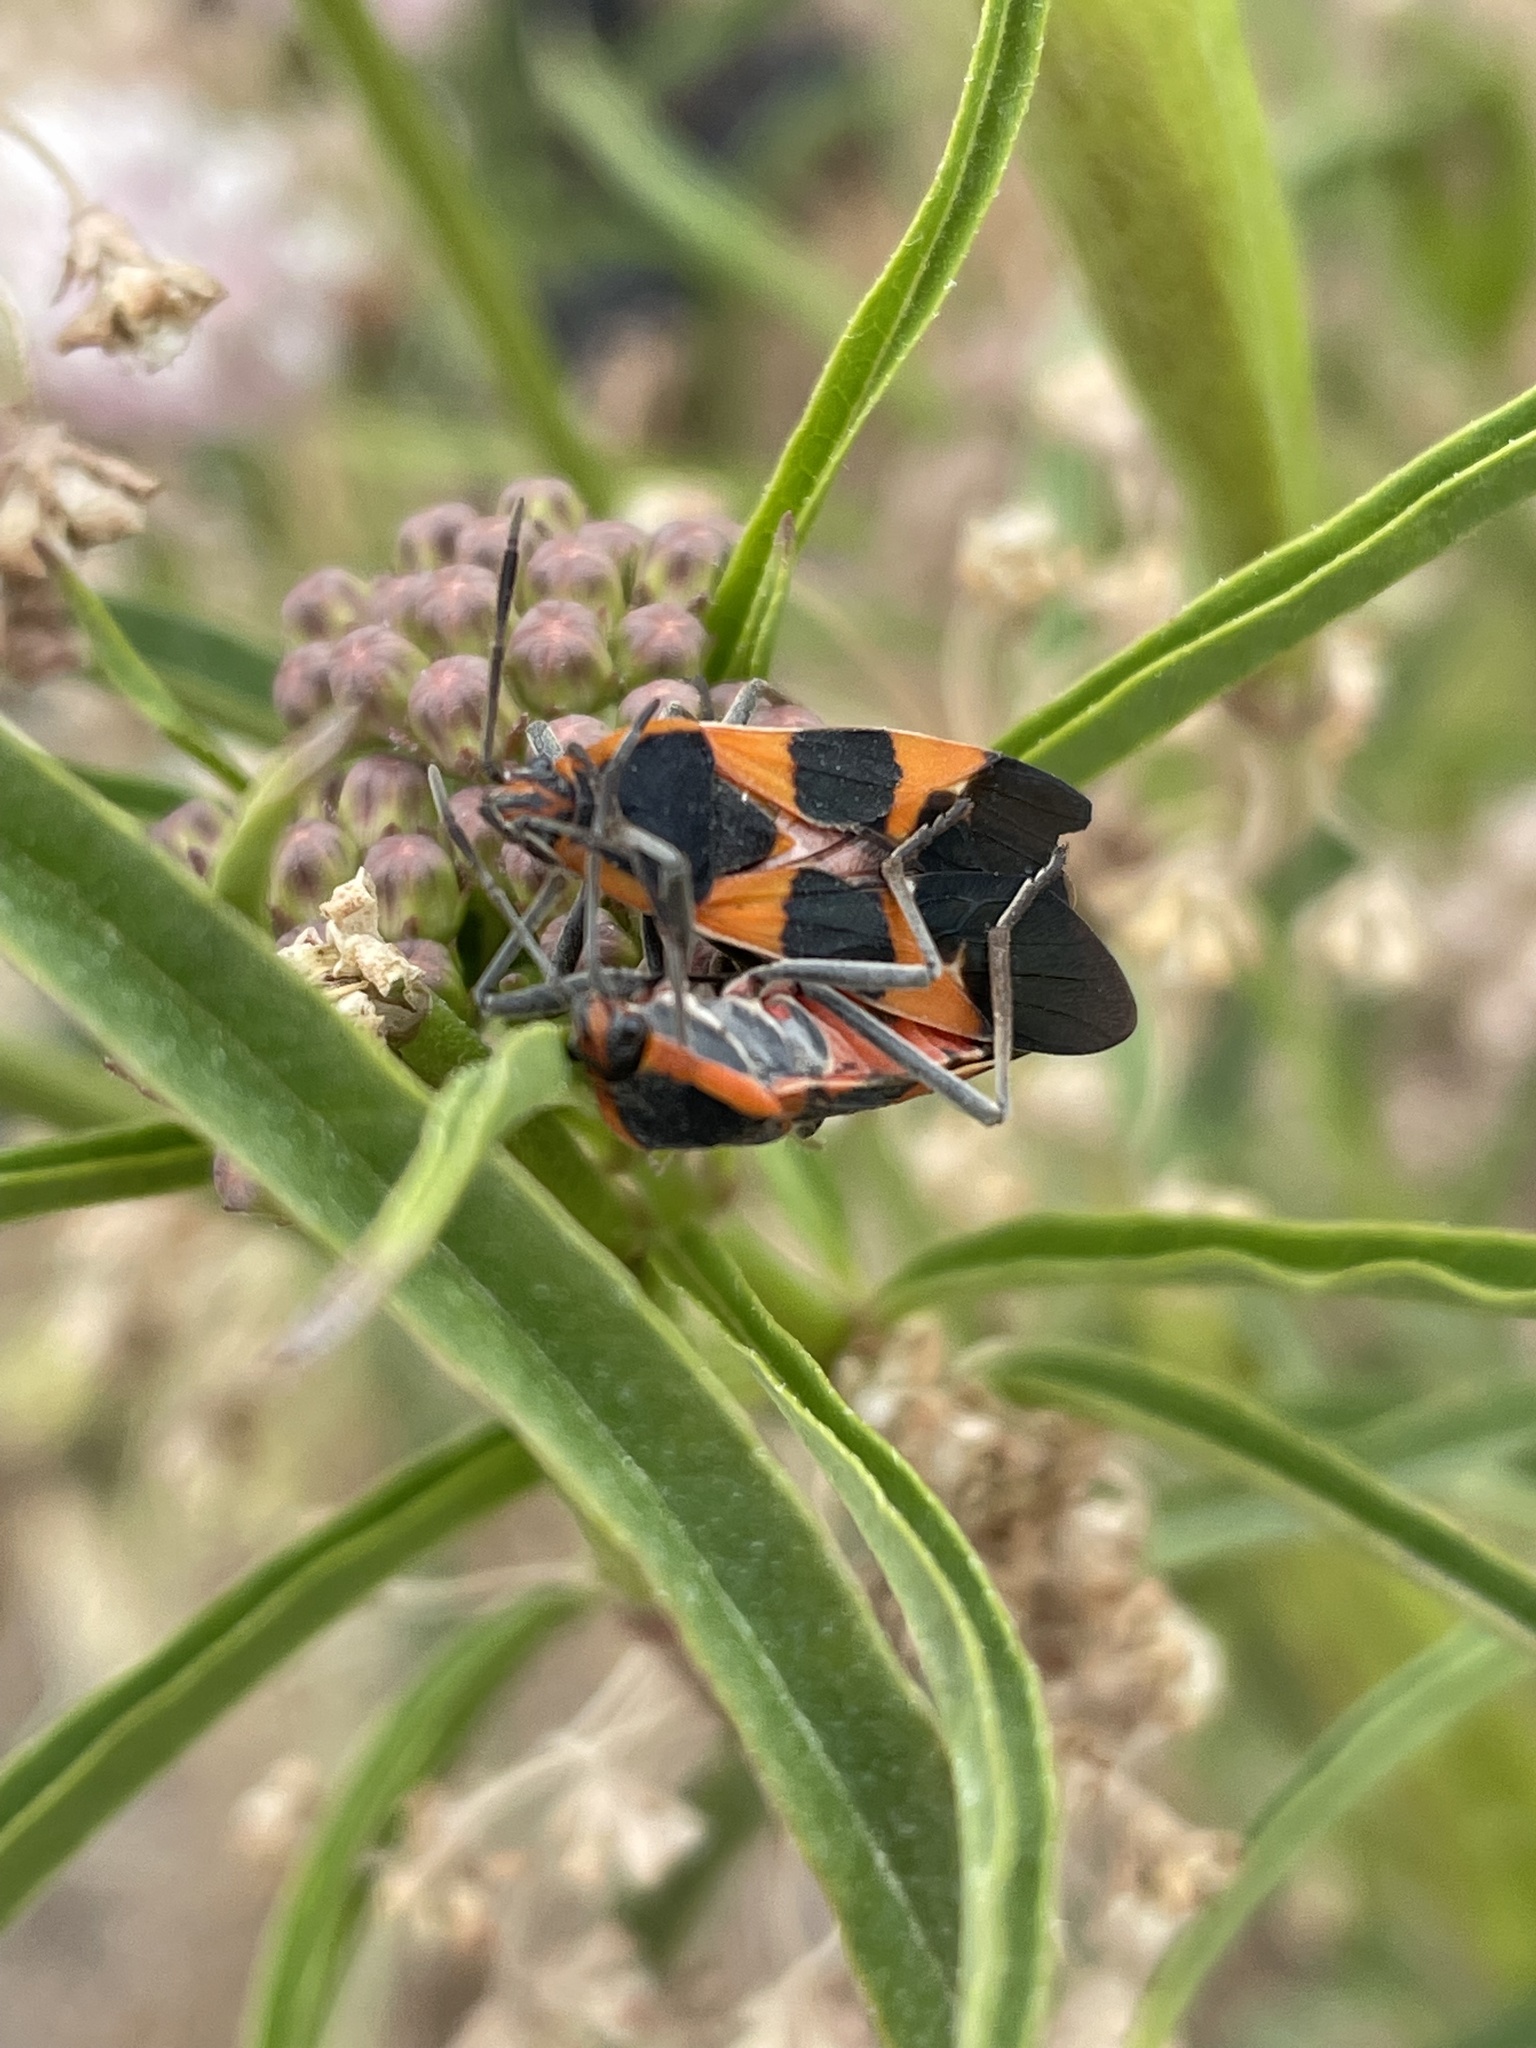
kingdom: Animalia
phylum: Arthropoda
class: Insecta
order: Hemiptera
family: Lygaeidae
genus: Oncopeltus
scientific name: Oncopeltus fasciatus
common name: Large milkweed bug
